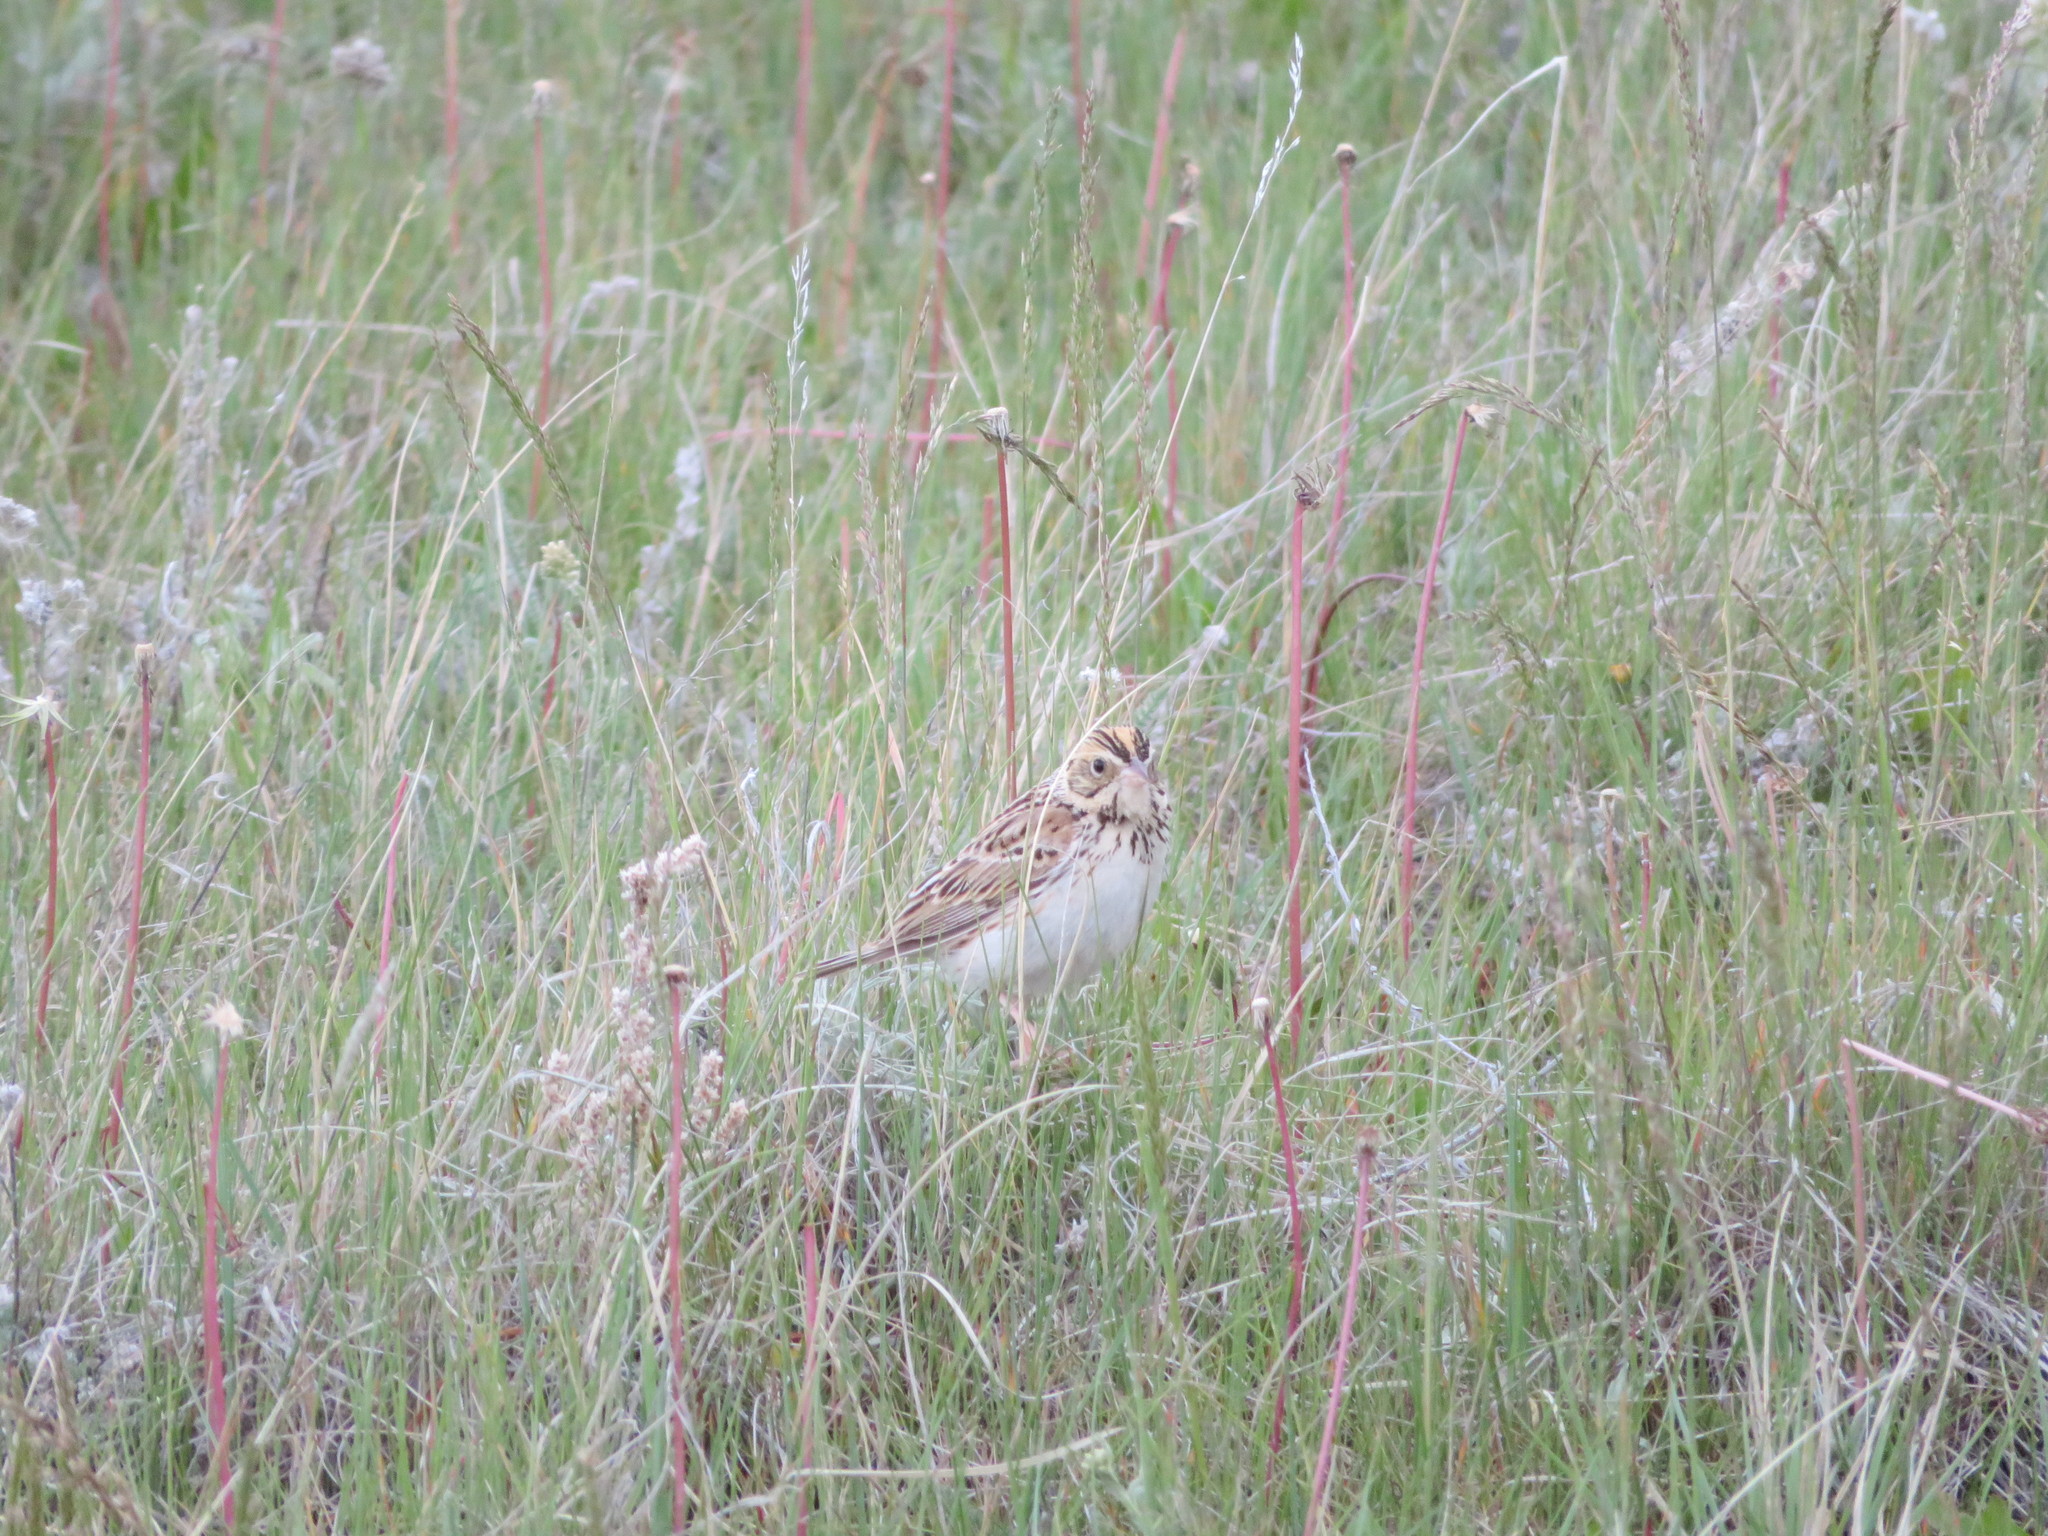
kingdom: Animalia
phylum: Chordata
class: Aves
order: Passeriformes
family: Passerellidae
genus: Centronyx
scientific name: Centronyx bairdii
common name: Baird's sparrow
